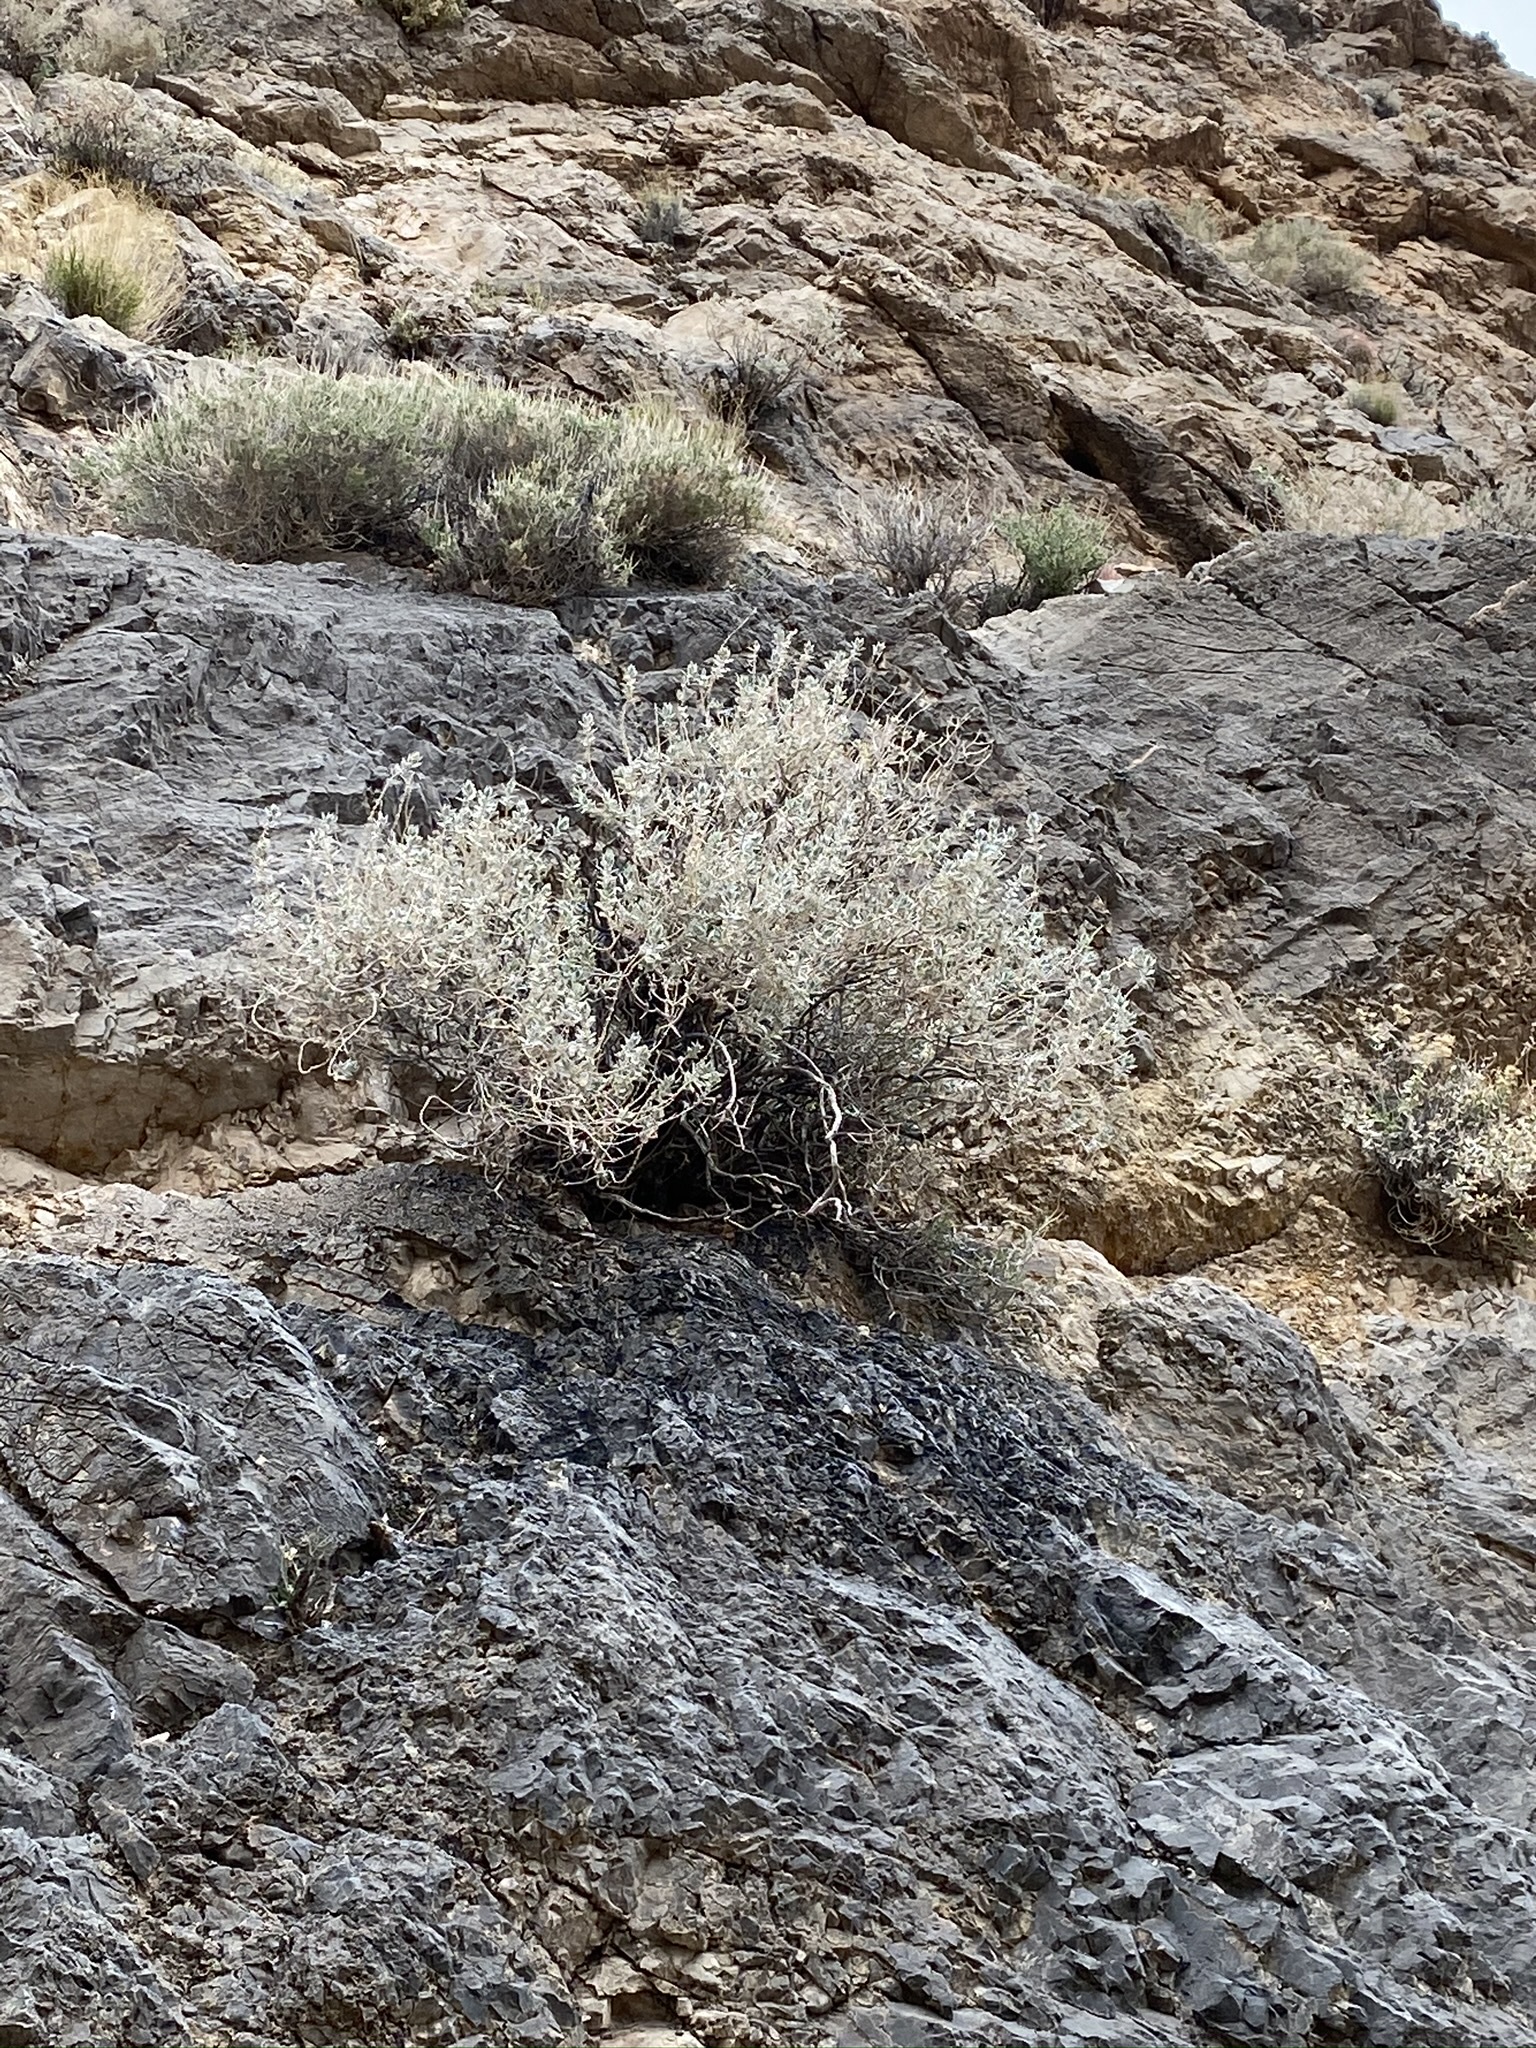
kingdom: Plantae
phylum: Tracheophyta
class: Magnoliopsida
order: Lamiales
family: Lamiaceae
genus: Salvia
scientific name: Salvia funerea
